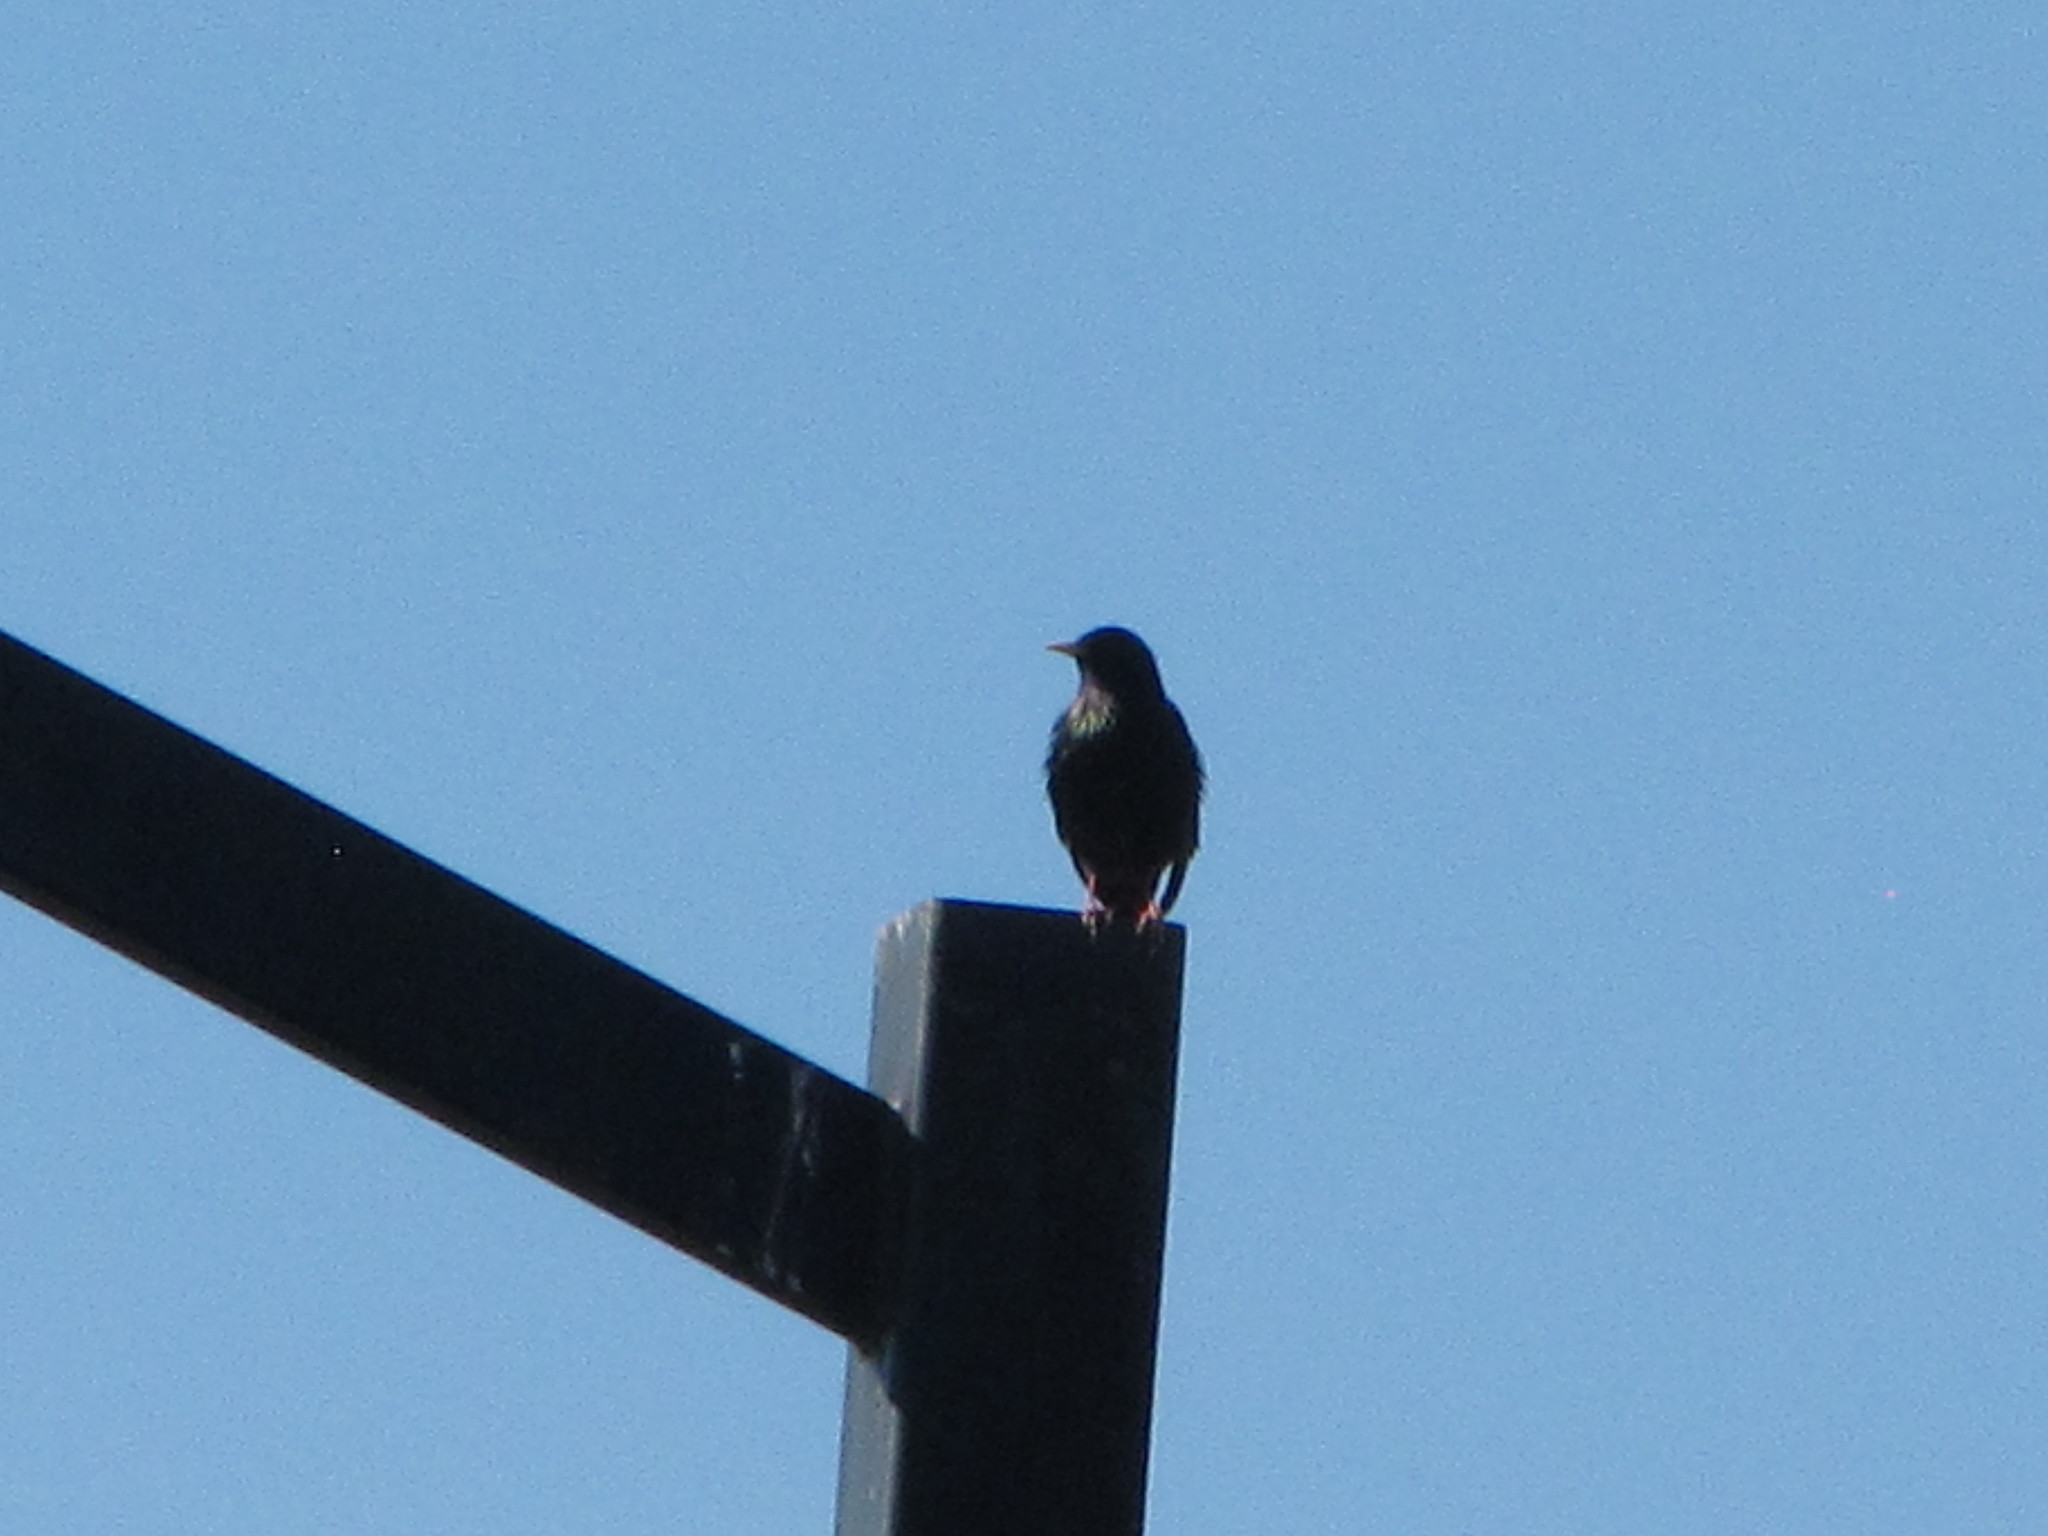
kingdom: Animalia
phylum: Chordata
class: Aves
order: Passeriformes
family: Sturnidae
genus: Sturnus
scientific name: Sturnus vulgaris
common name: Common starling
